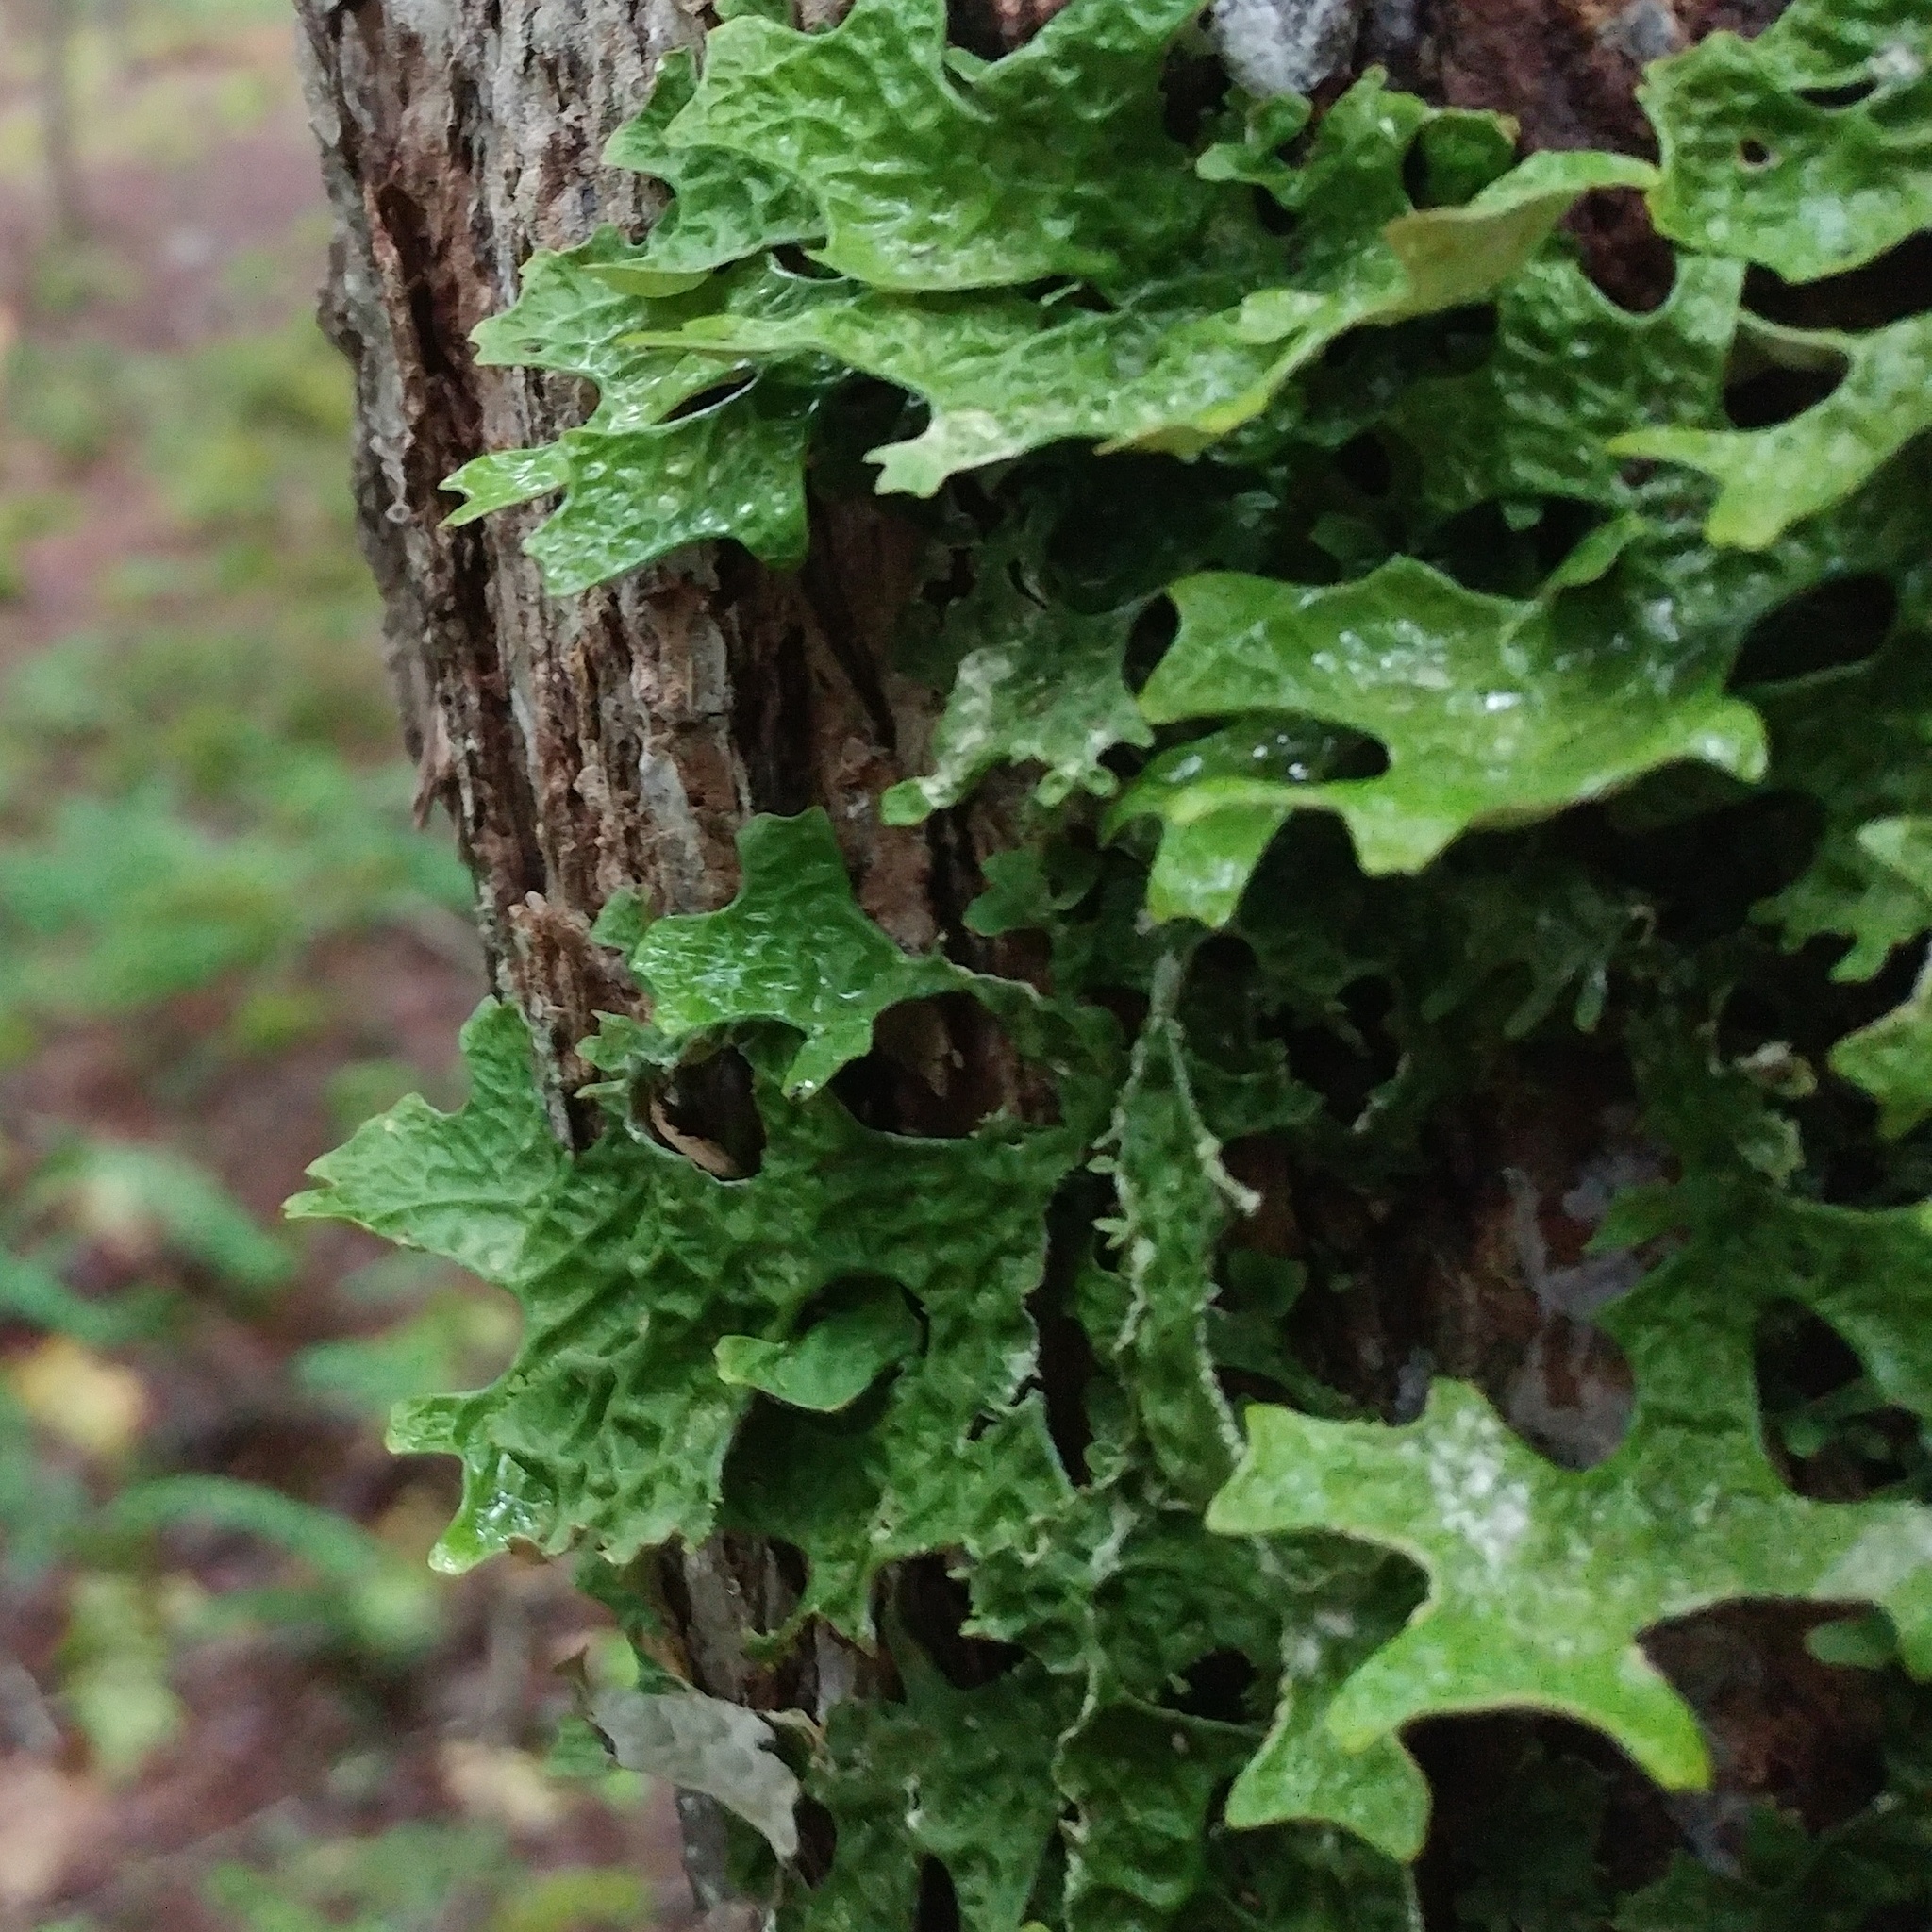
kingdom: Fungi
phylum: Ascomycota
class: Lecanoromycetes
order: Peltigerales
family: Lobariaceae
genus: Lobaria
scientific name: Lobaria pulmonaria
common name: Lungwort
